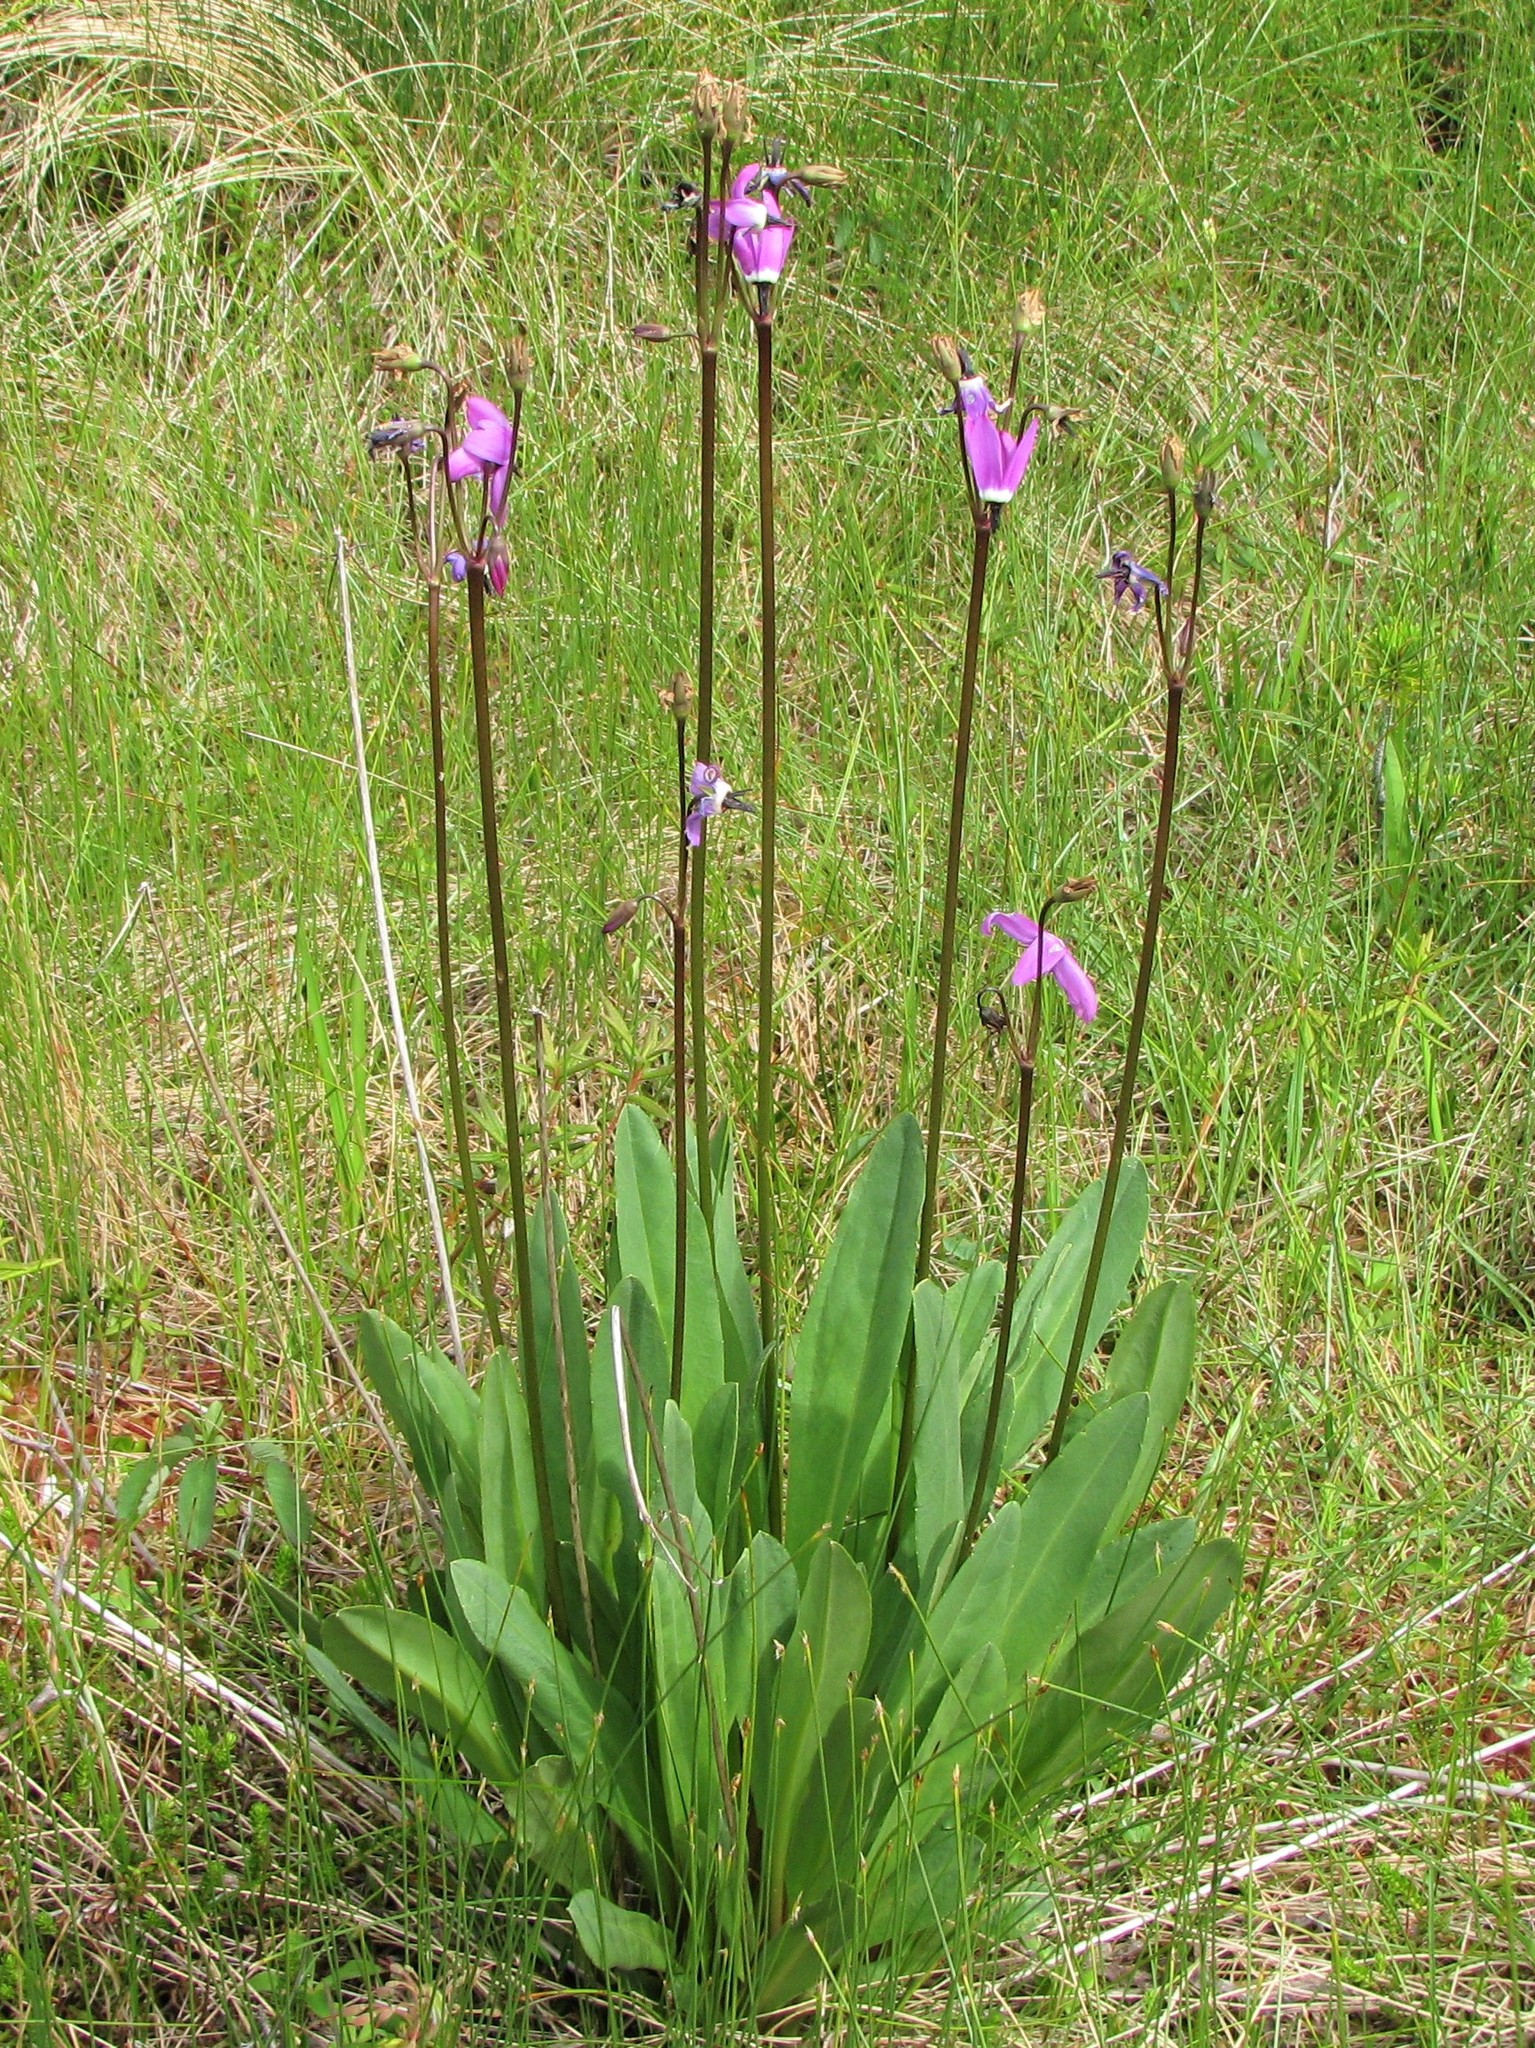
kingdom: Plantae
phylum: Tracheophyta
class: Magnoliopsida
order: Ericales
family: Primulaceae
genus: Dodecatheon
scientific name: Dodecatheon jeffreyanum
